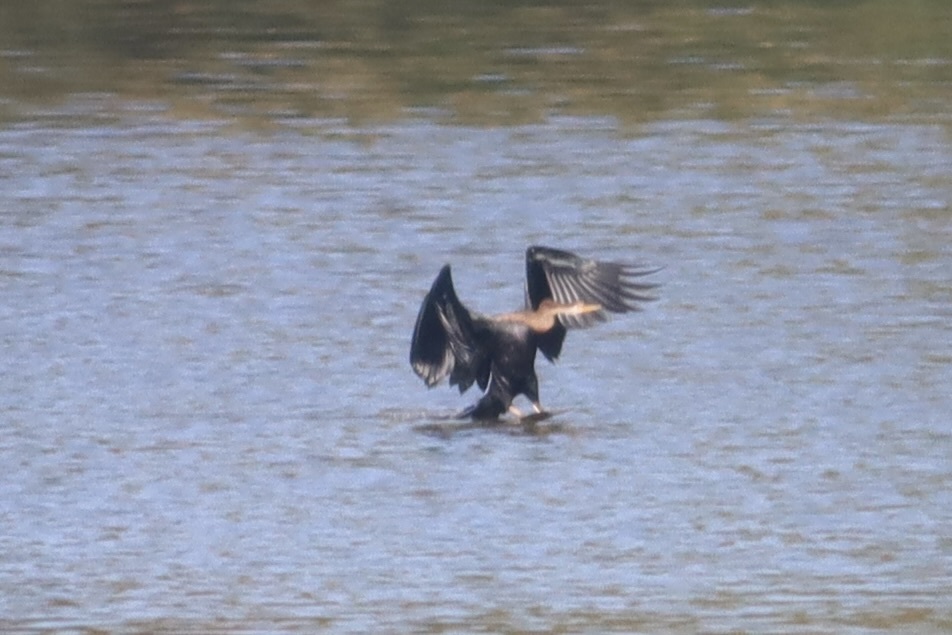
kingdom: Animalia
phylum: Chordata
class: Aves
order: Suliformes
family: Anhingidae
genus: Anhinga
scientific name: Anhinga melanogaster
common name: Oriental darter
